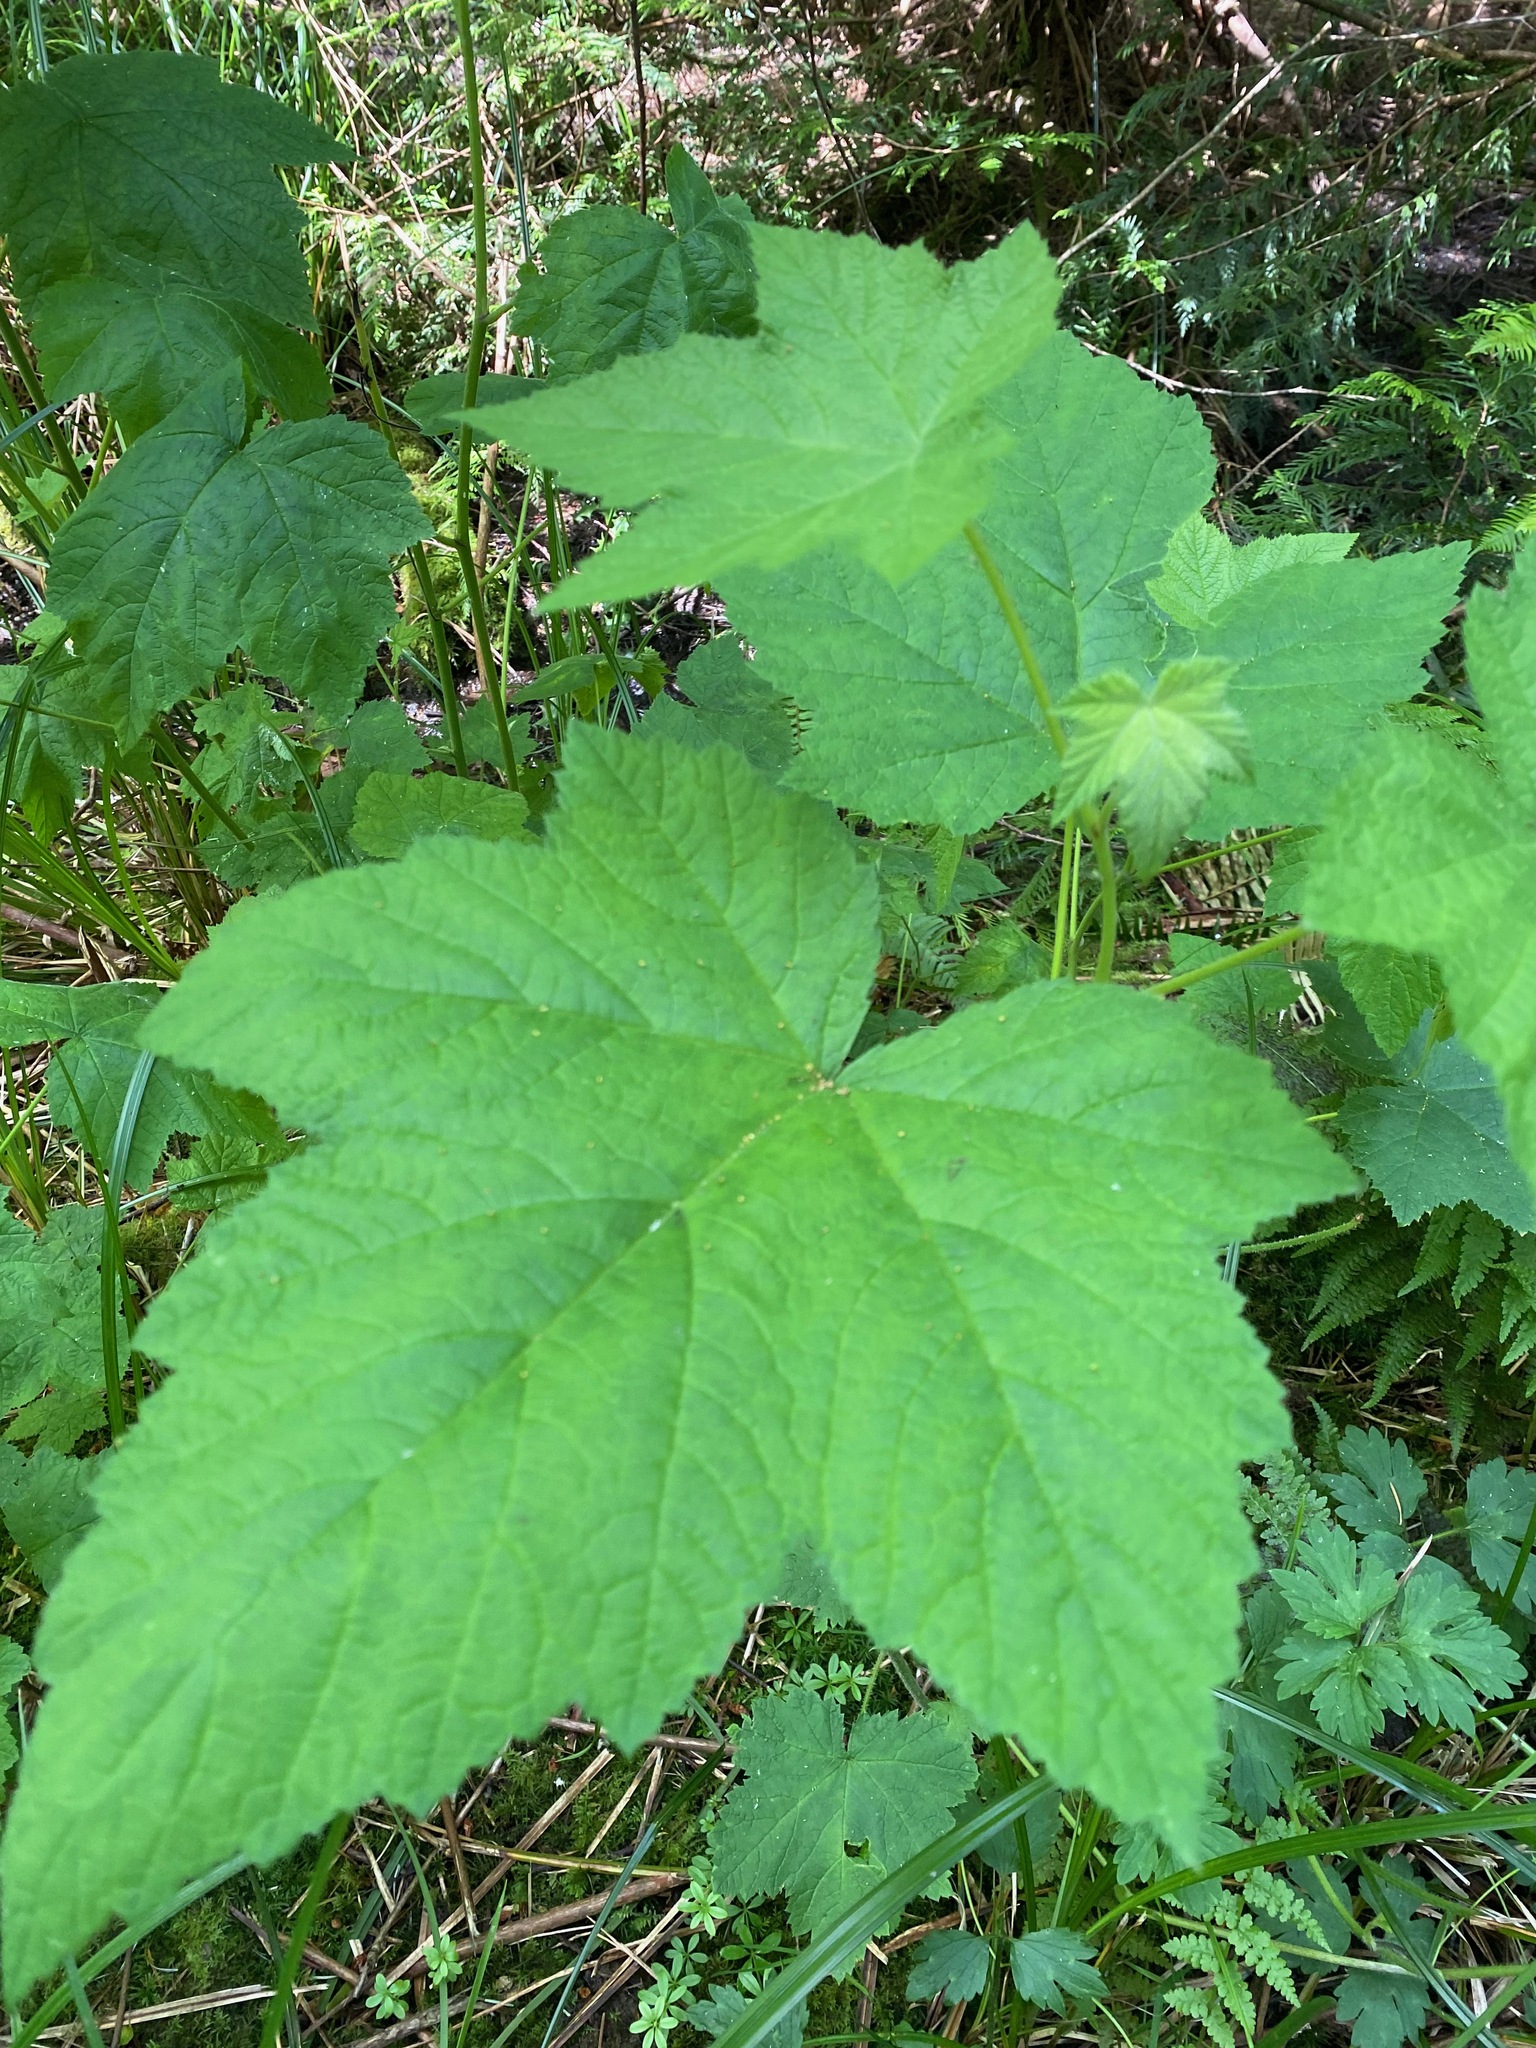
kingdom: Plantae
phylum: Tracheophyta
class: Magnoliopsida
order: Rosales
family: Rosaceae
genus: Rubus
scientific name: Rubus parviflorus
